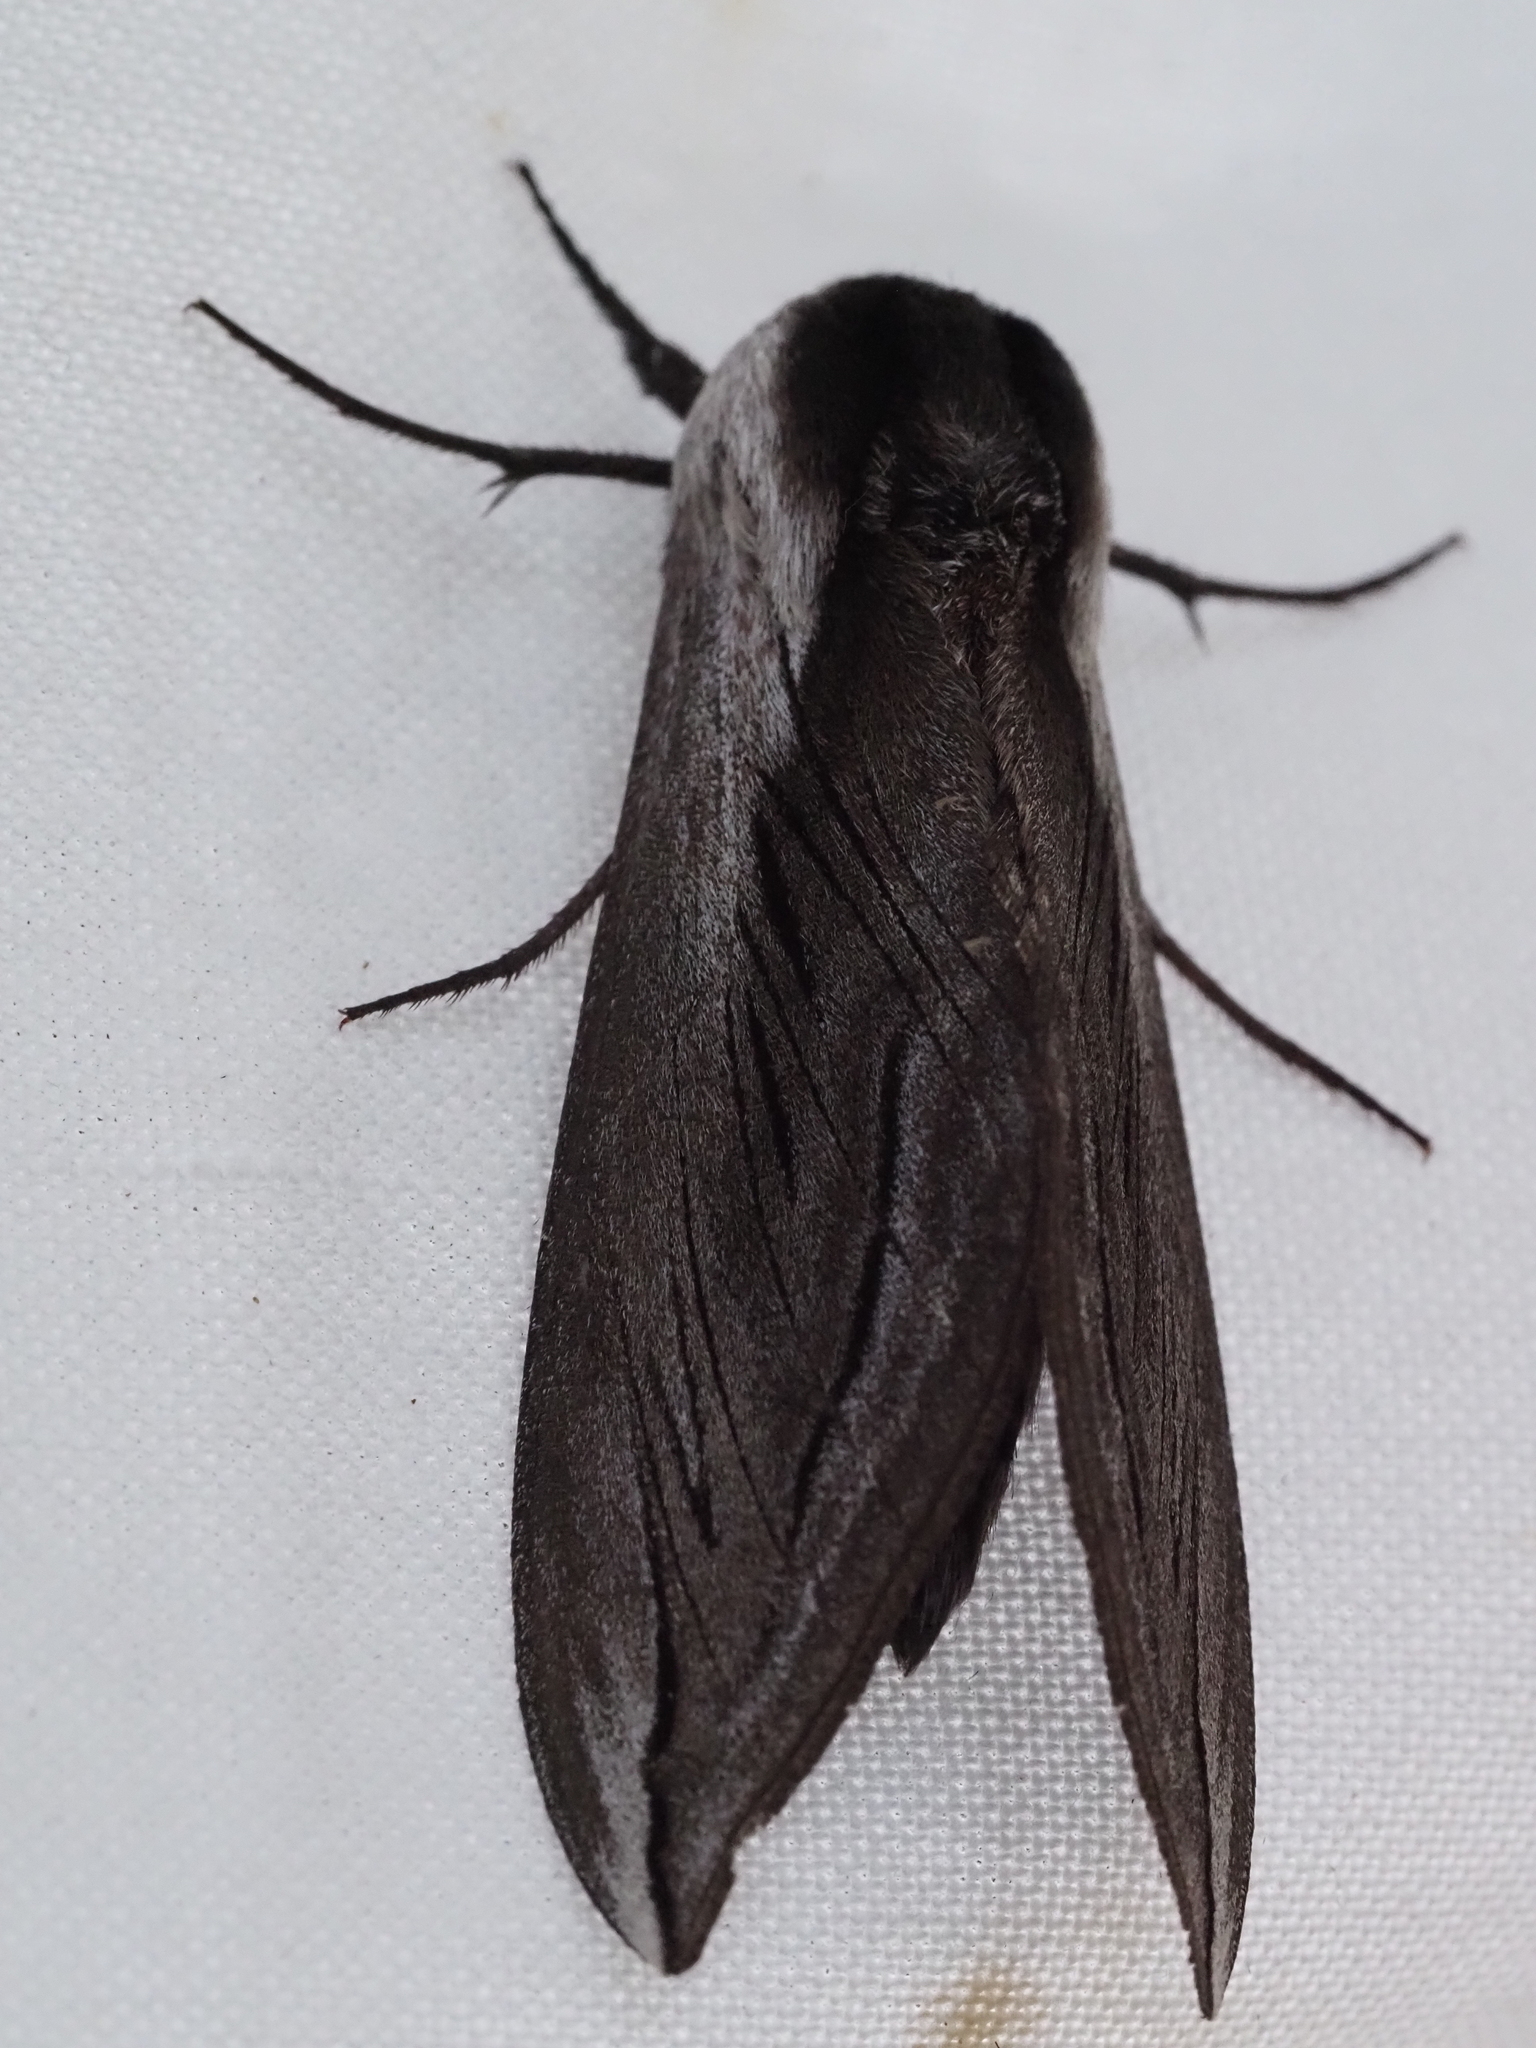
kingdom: Animalia
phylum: Arthropoda
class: Insecta
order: Lepidoptera
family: Sphingidae
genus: Sphinx
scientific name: Sphinx vashti
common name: Snowberry sphinx
